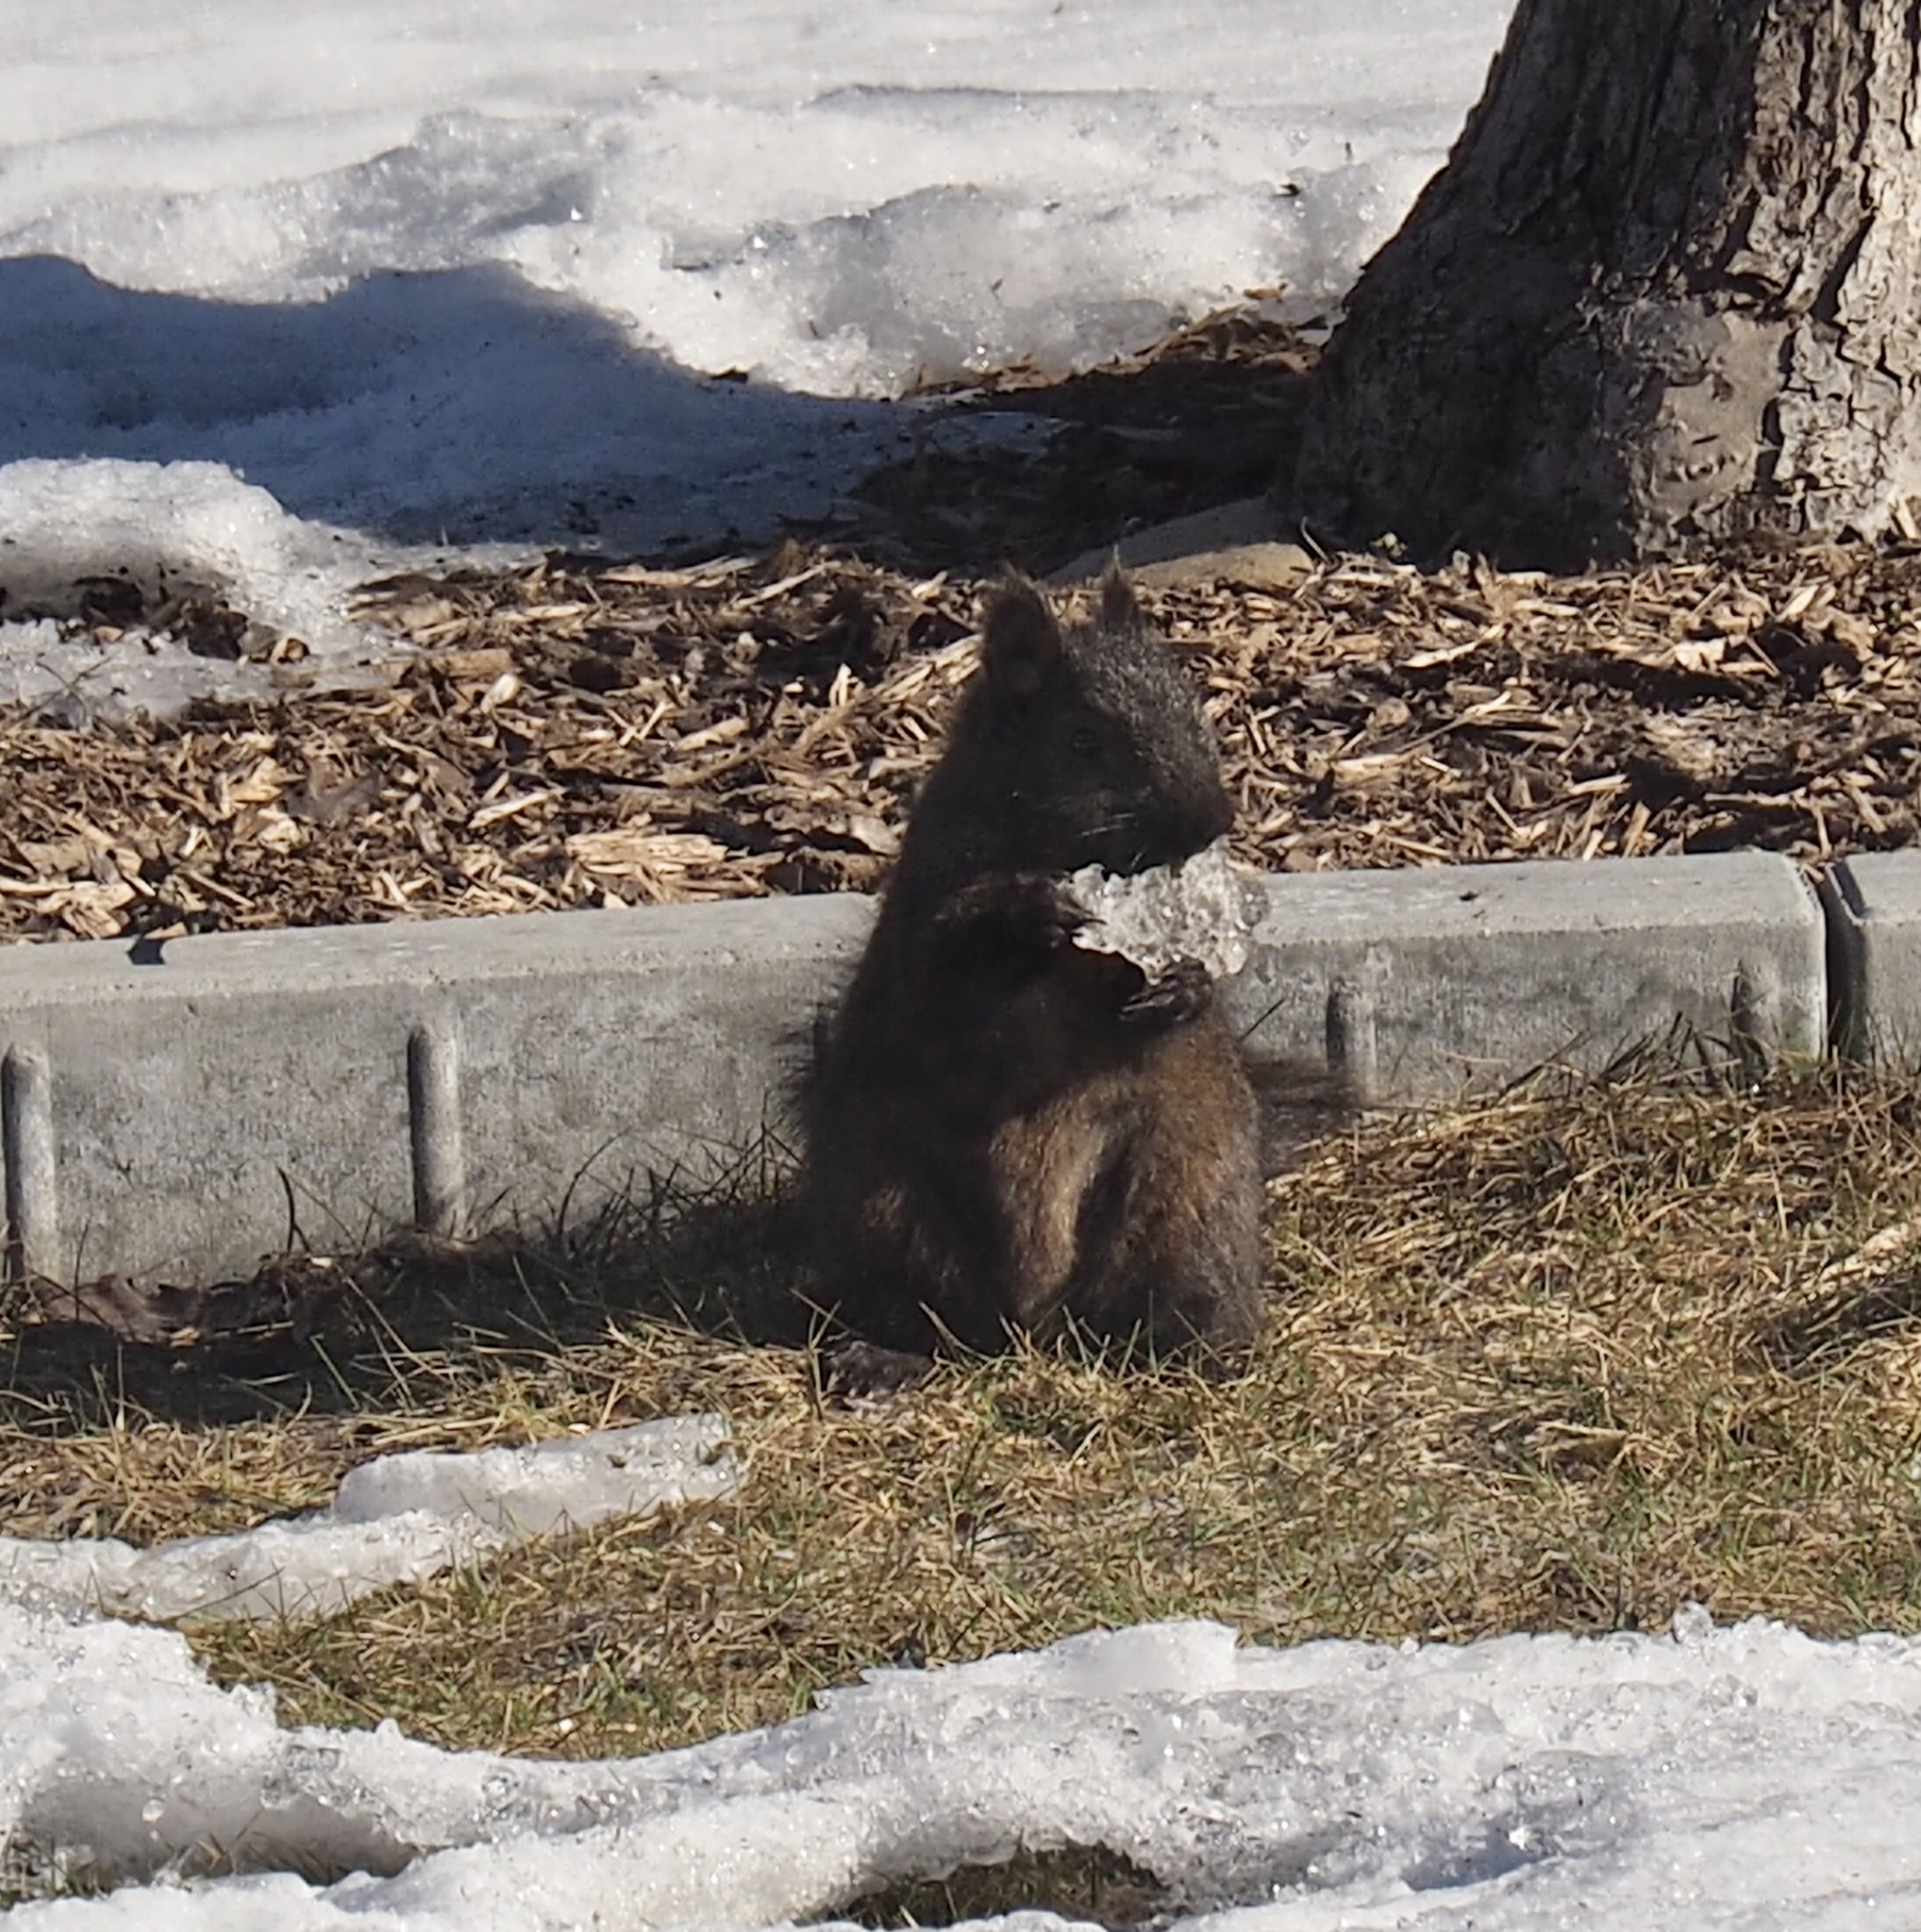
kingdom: Animalia
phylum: Chordata
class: Mammalia
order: Rodentia
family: Sciuridae
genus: Sciurus
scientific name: Sciurus carolinensis
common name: Eastern gray squirrel
